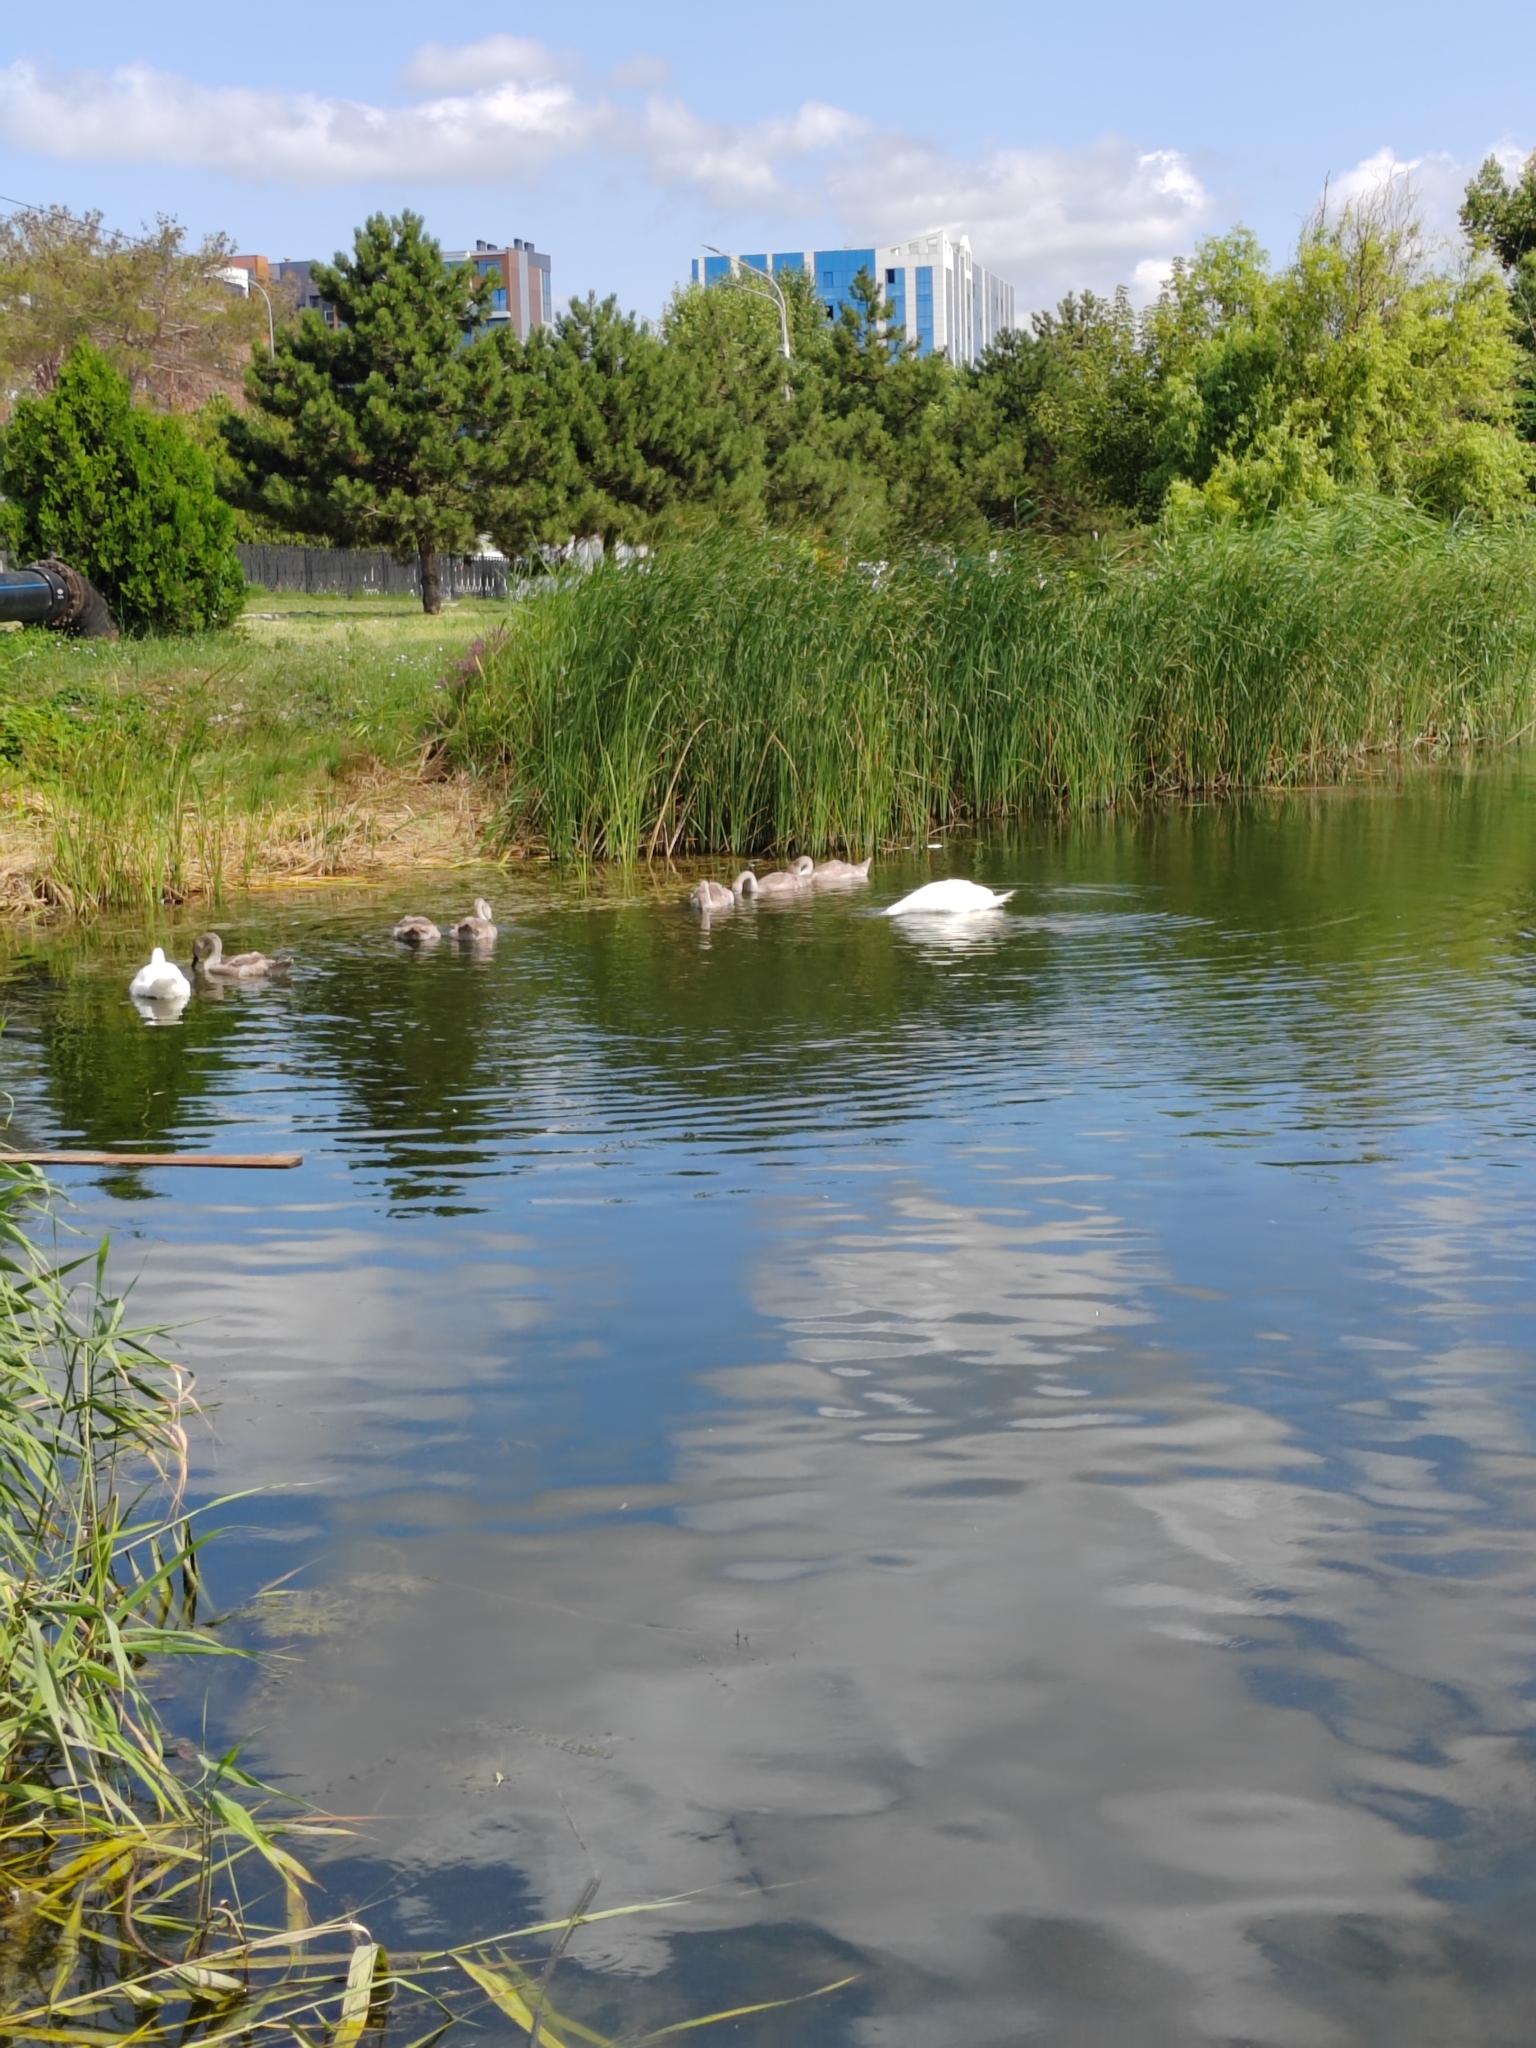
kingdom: Animalia
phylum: Chordata
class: Aves
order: Anseriformes
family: Anatidae
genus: Cygnus
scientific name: Cygnus olor
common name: Mute swan
